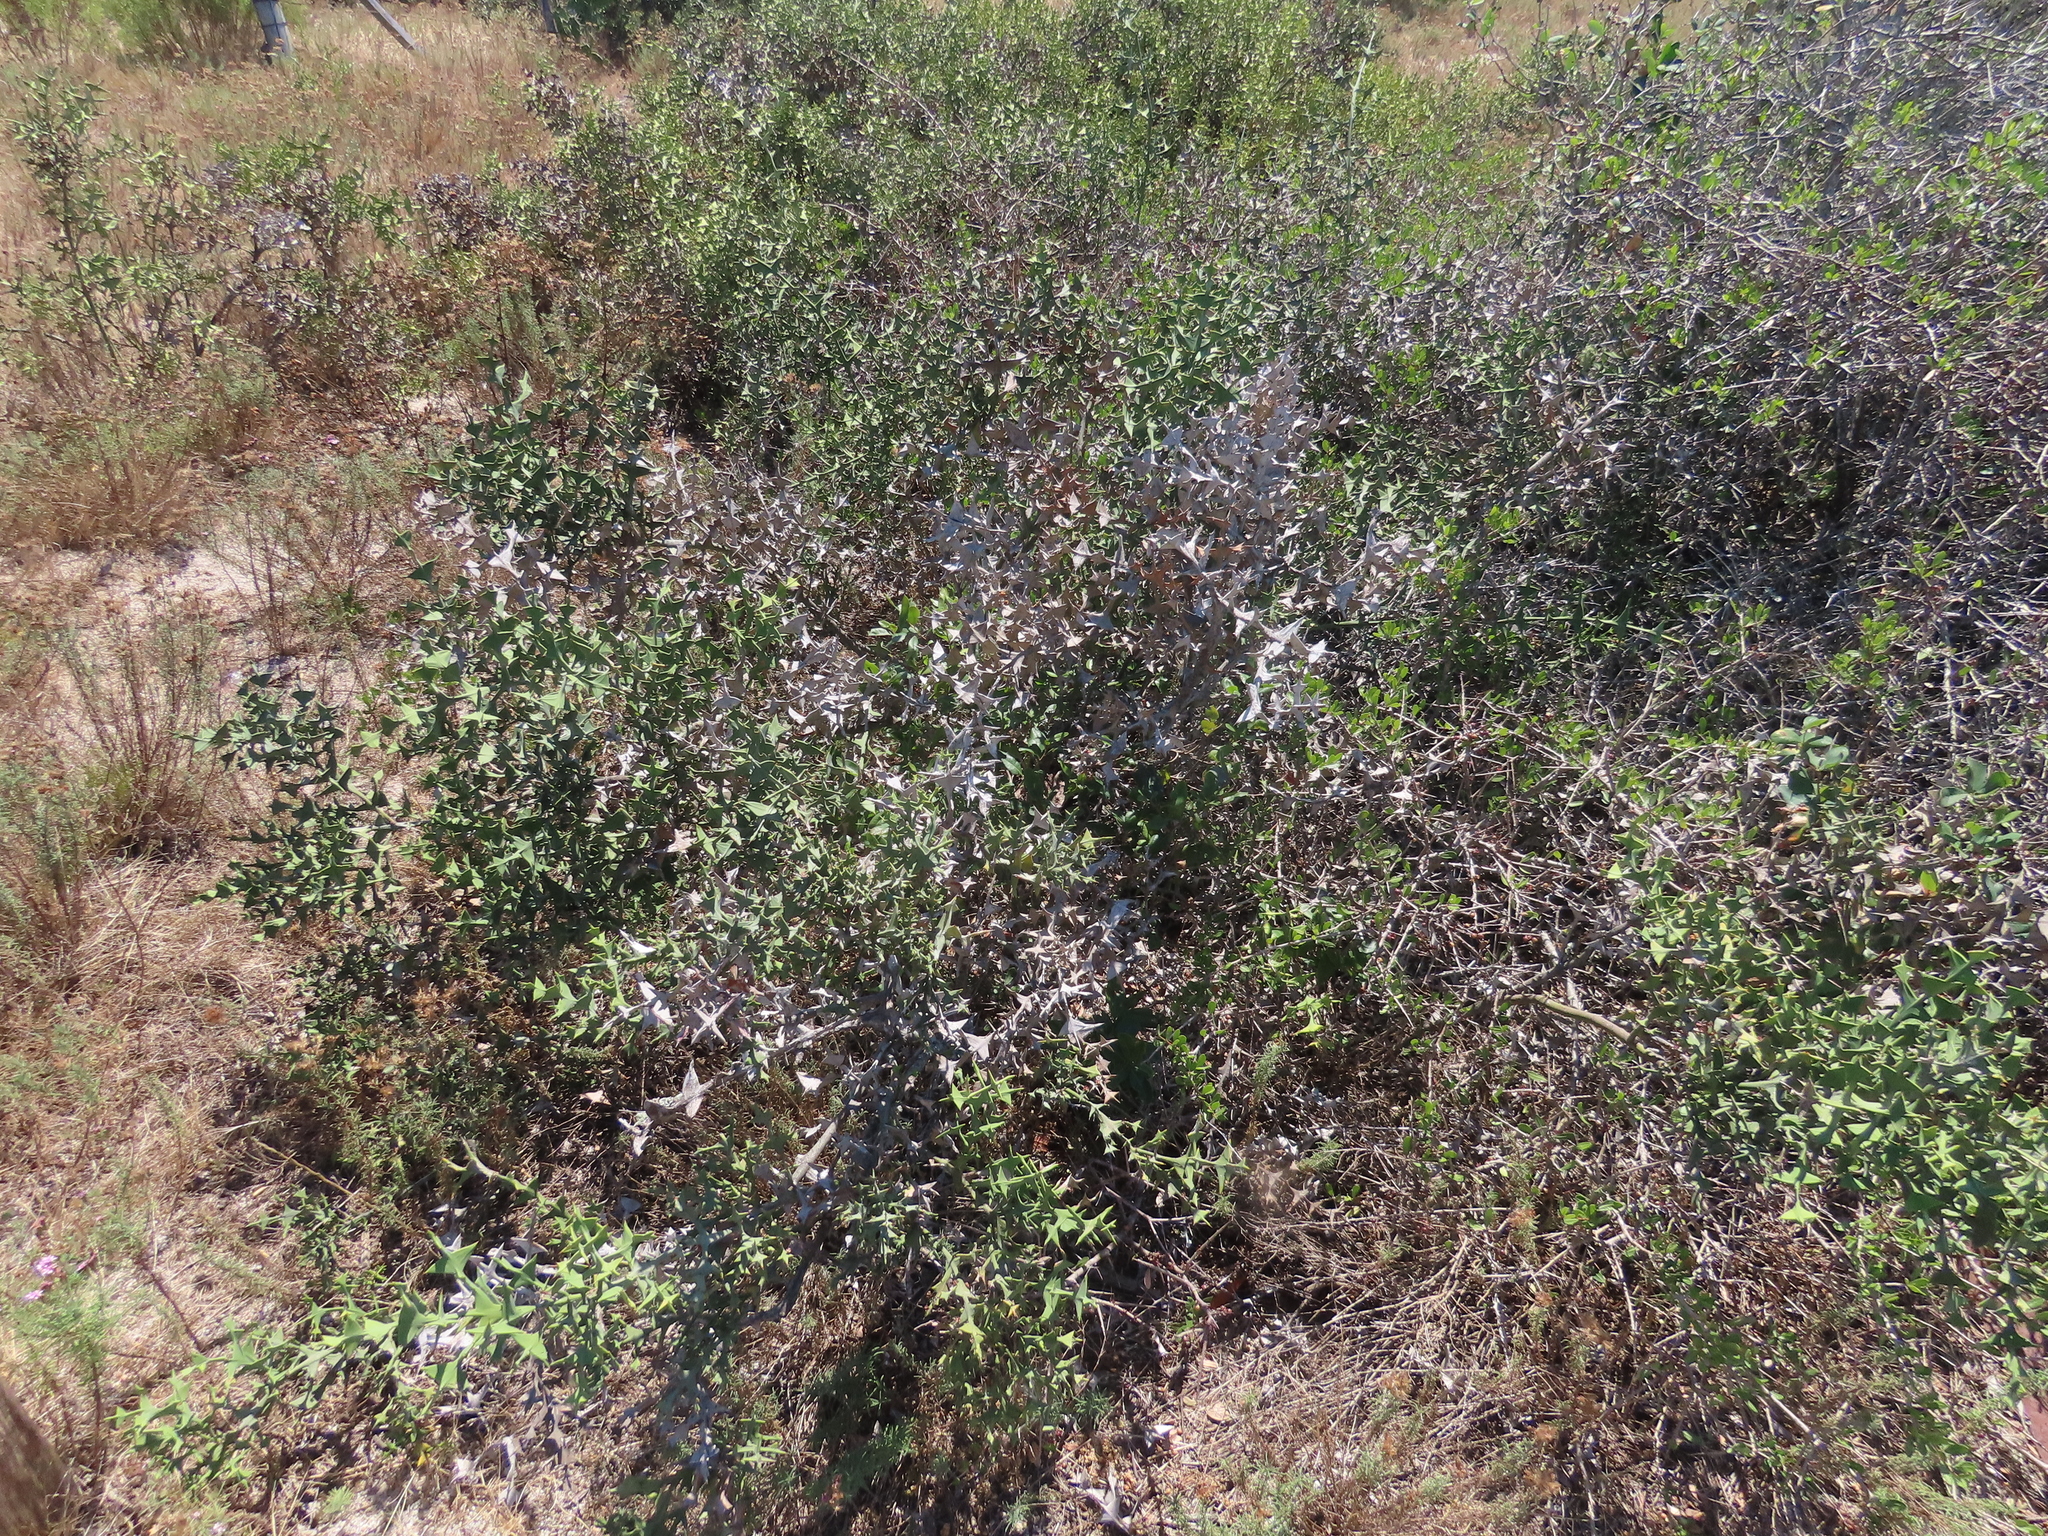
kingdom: Plantae
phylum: Tracheophyta
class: Magnoliopsida
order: Rosales
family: Rhamnaceae
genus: Colletia
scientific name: Colletia paradoxa
